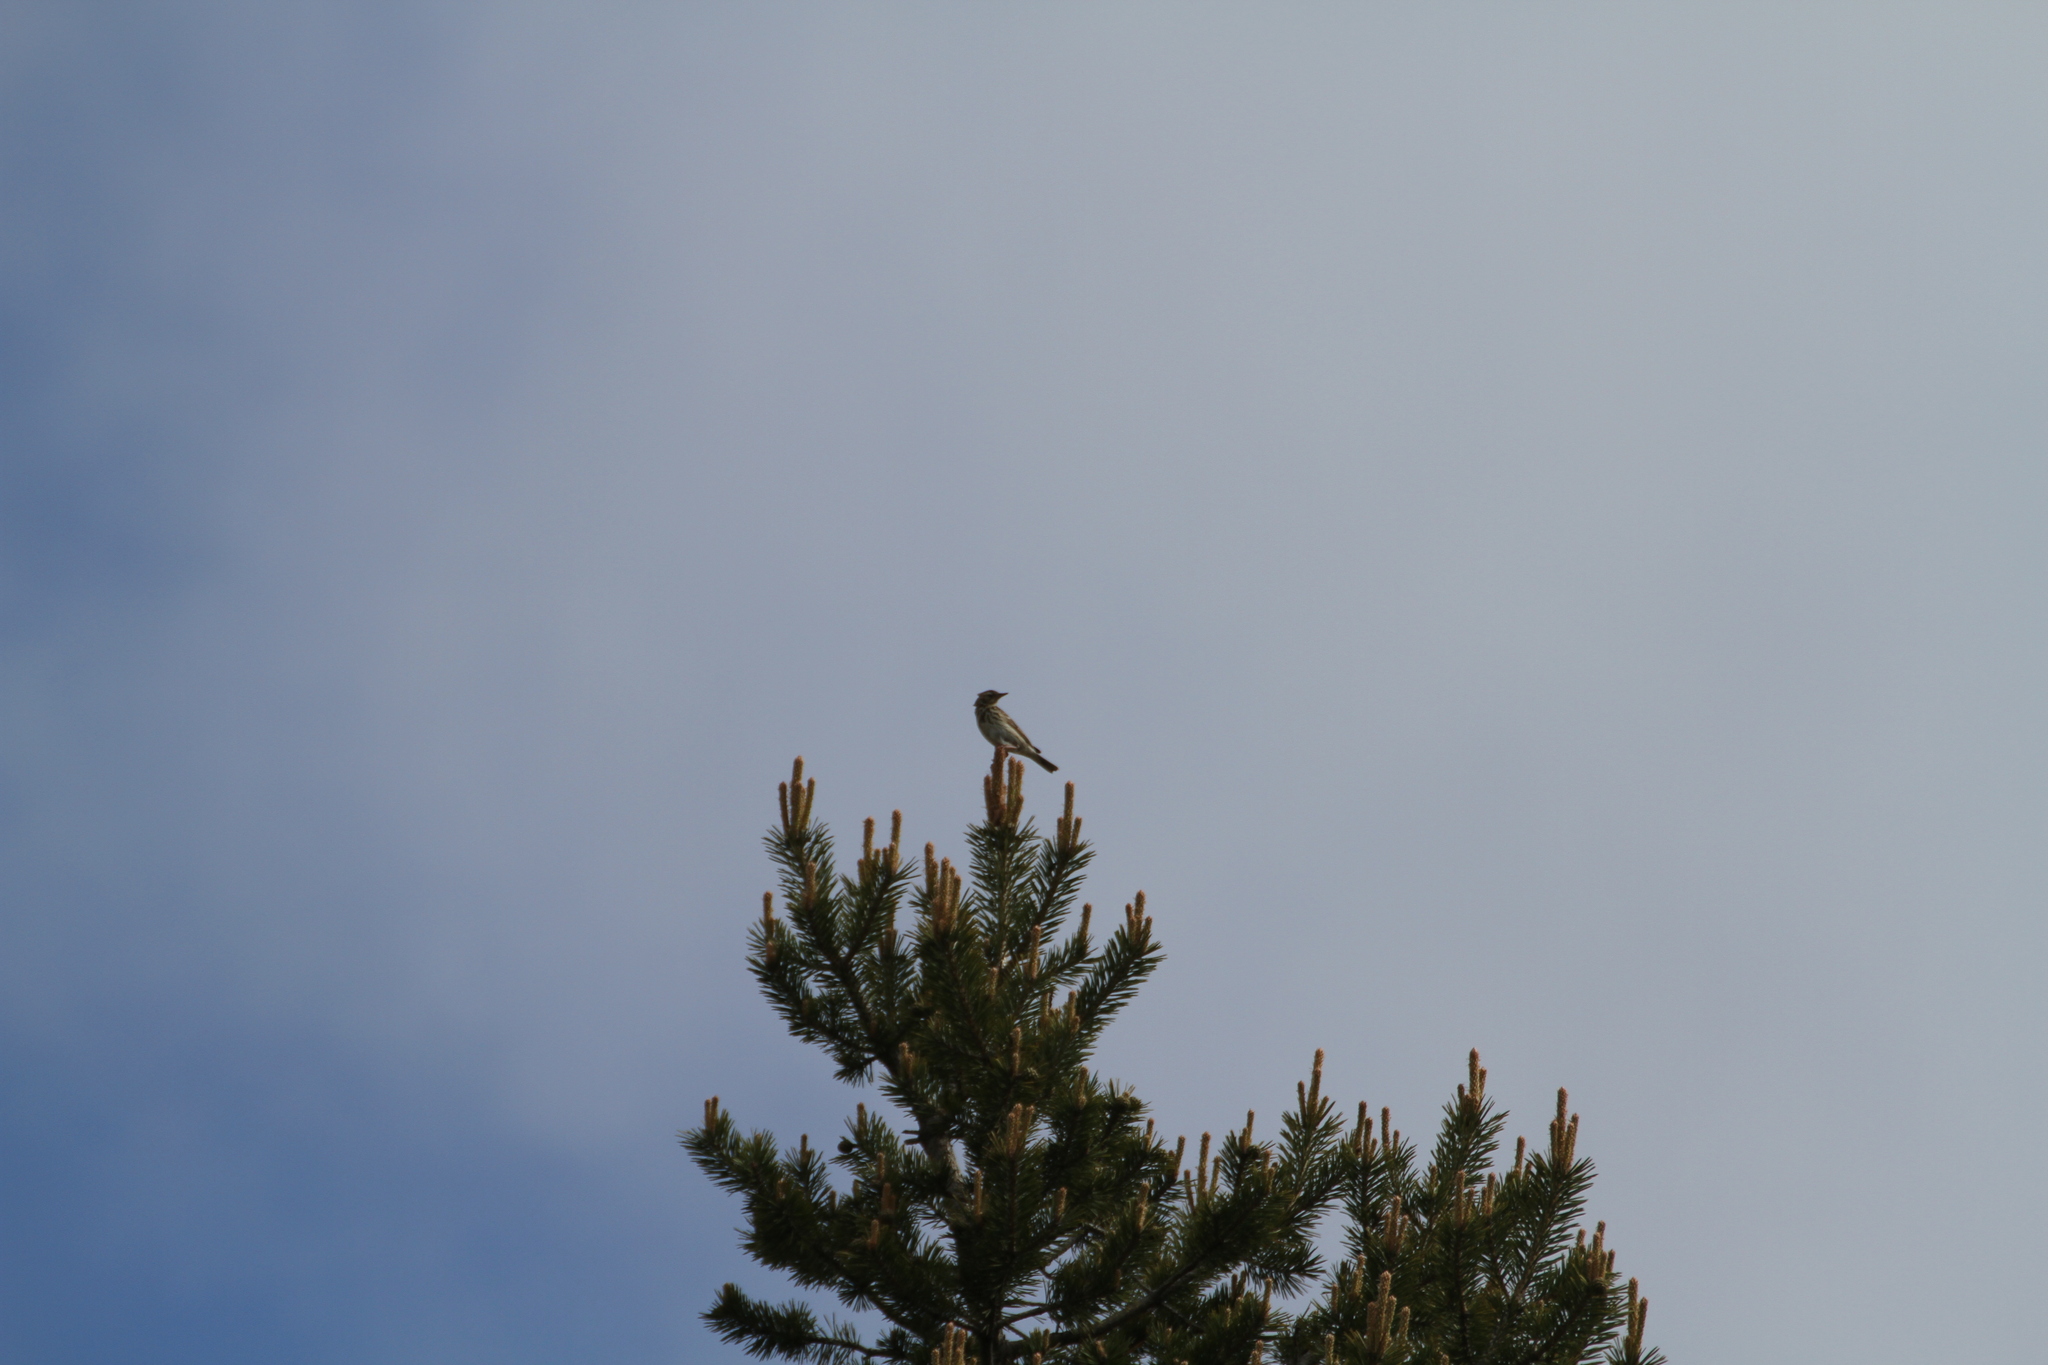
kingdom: Animalia
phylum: Chordata
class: Aves
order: Passeriformes
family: Motacillidae
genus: Anthus
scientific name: Anthus trivialis
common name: Tree pipit
